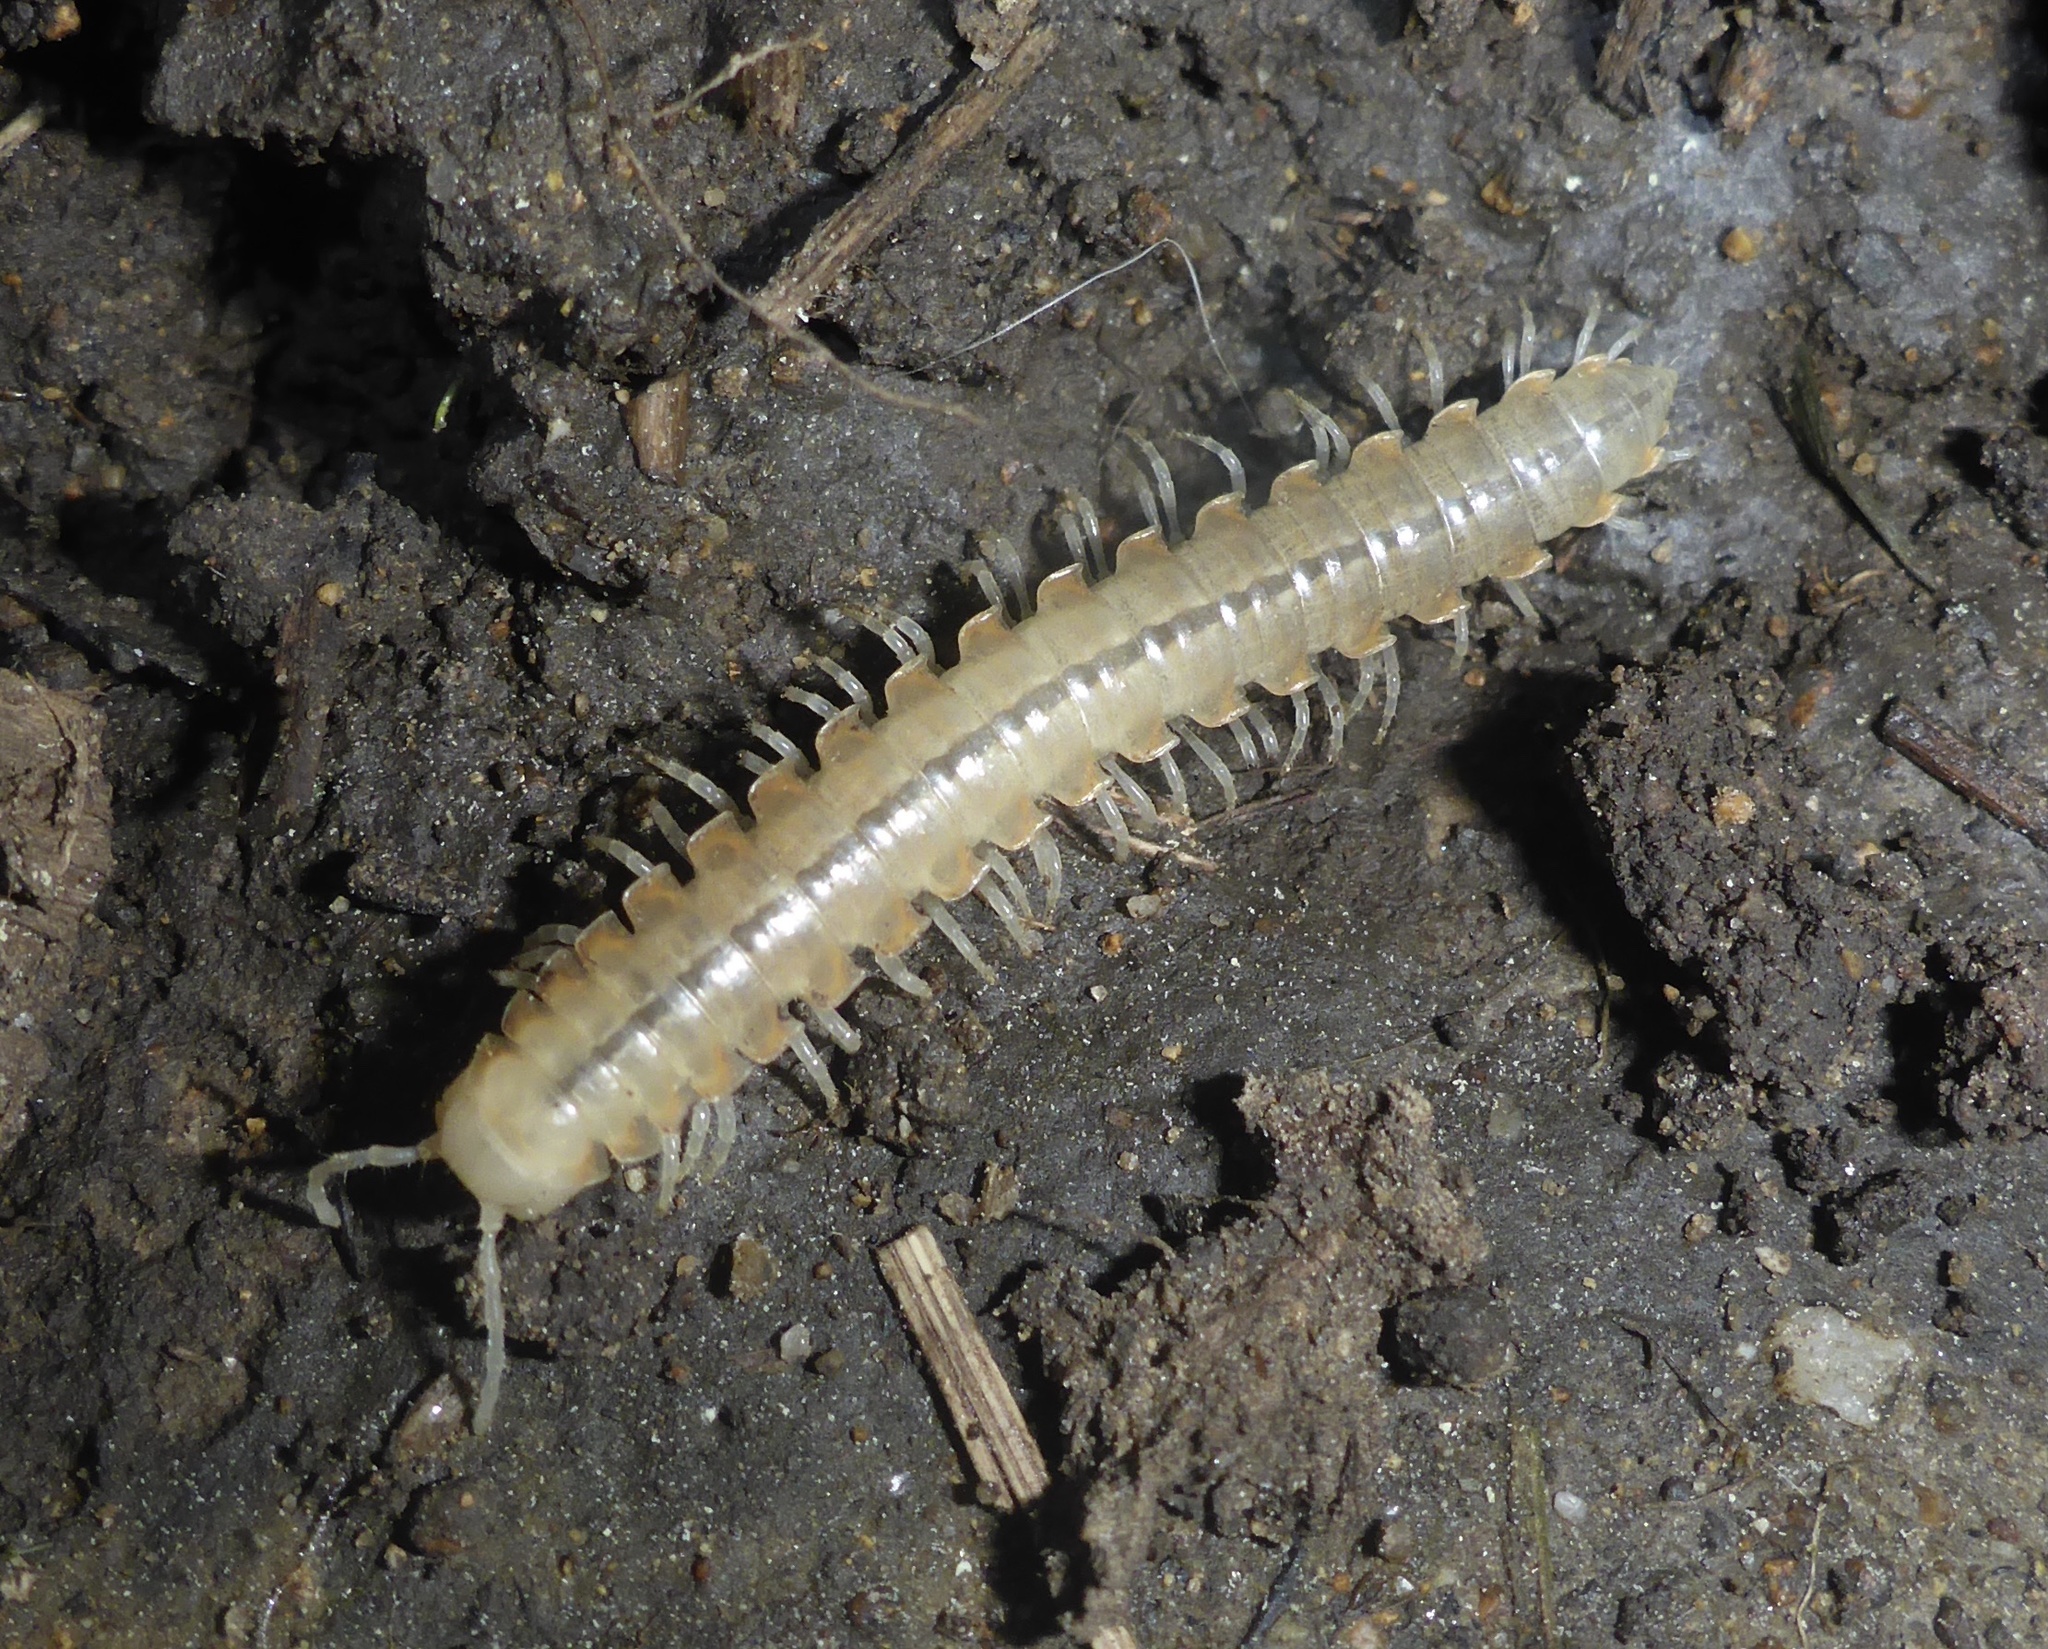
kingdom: Animalia
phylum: Arthropoda
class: Diplopoda
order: Polydesmida
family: Xystodesmidae
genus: Xystocheir
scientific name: Xystocheir dissecta
